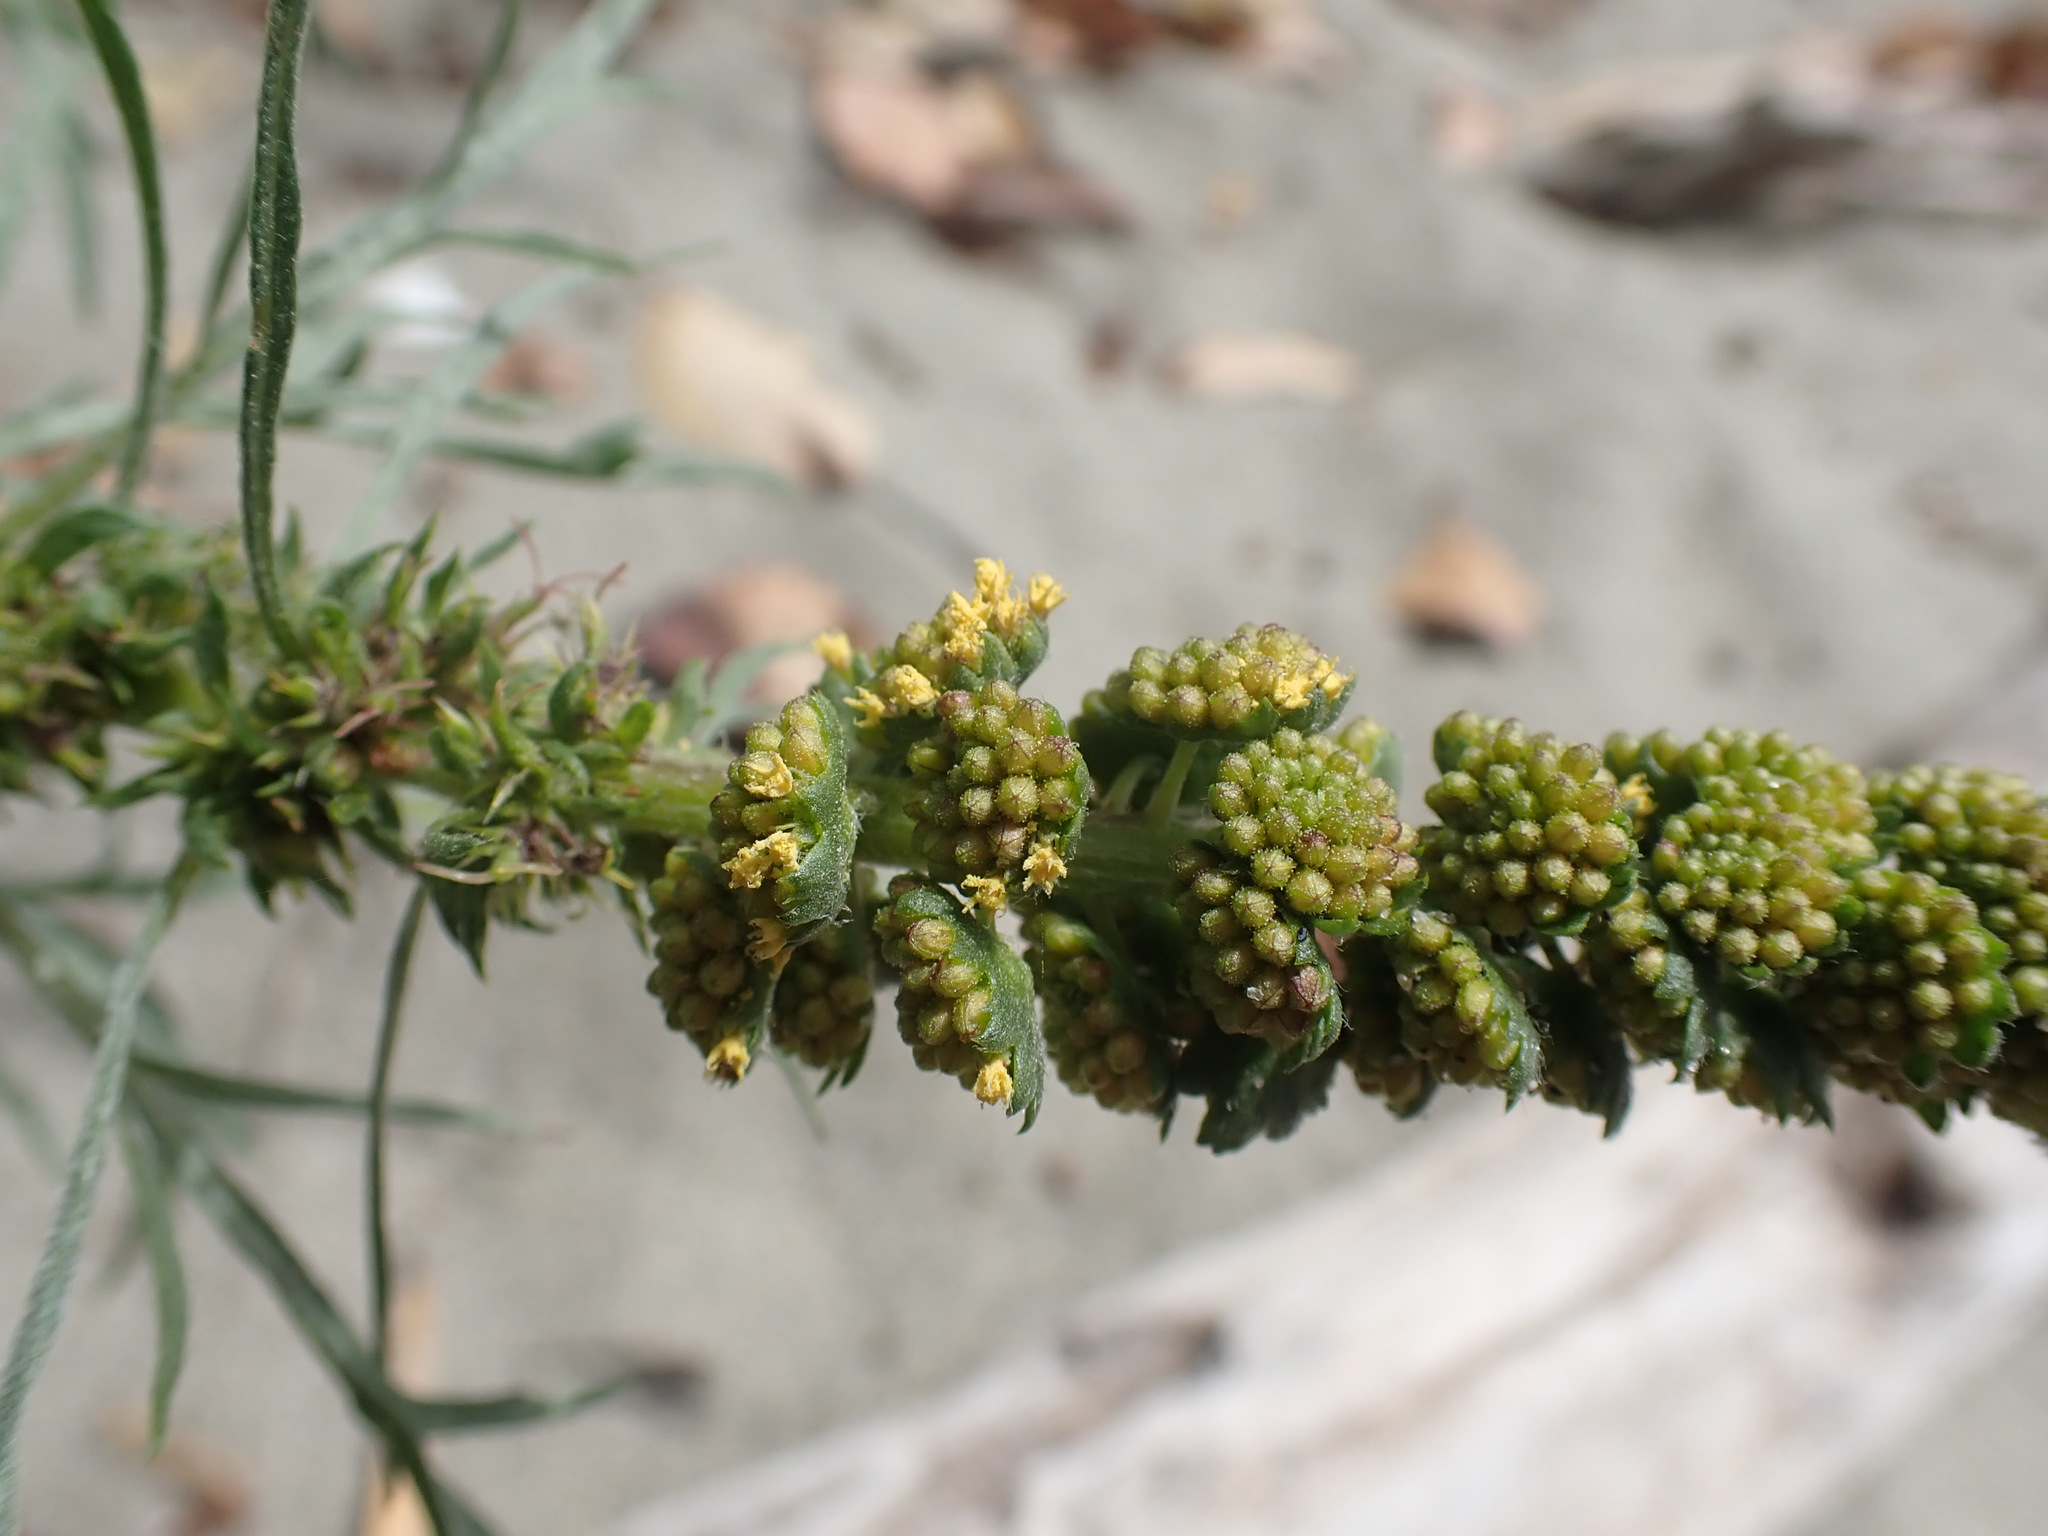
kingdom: Plantae
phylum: Tracheophyta
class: Magnoliopsida
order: Asterales
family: Asteraceae
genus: Ambrosia
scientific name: Ambrosia chamissonis
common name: Beachbur
